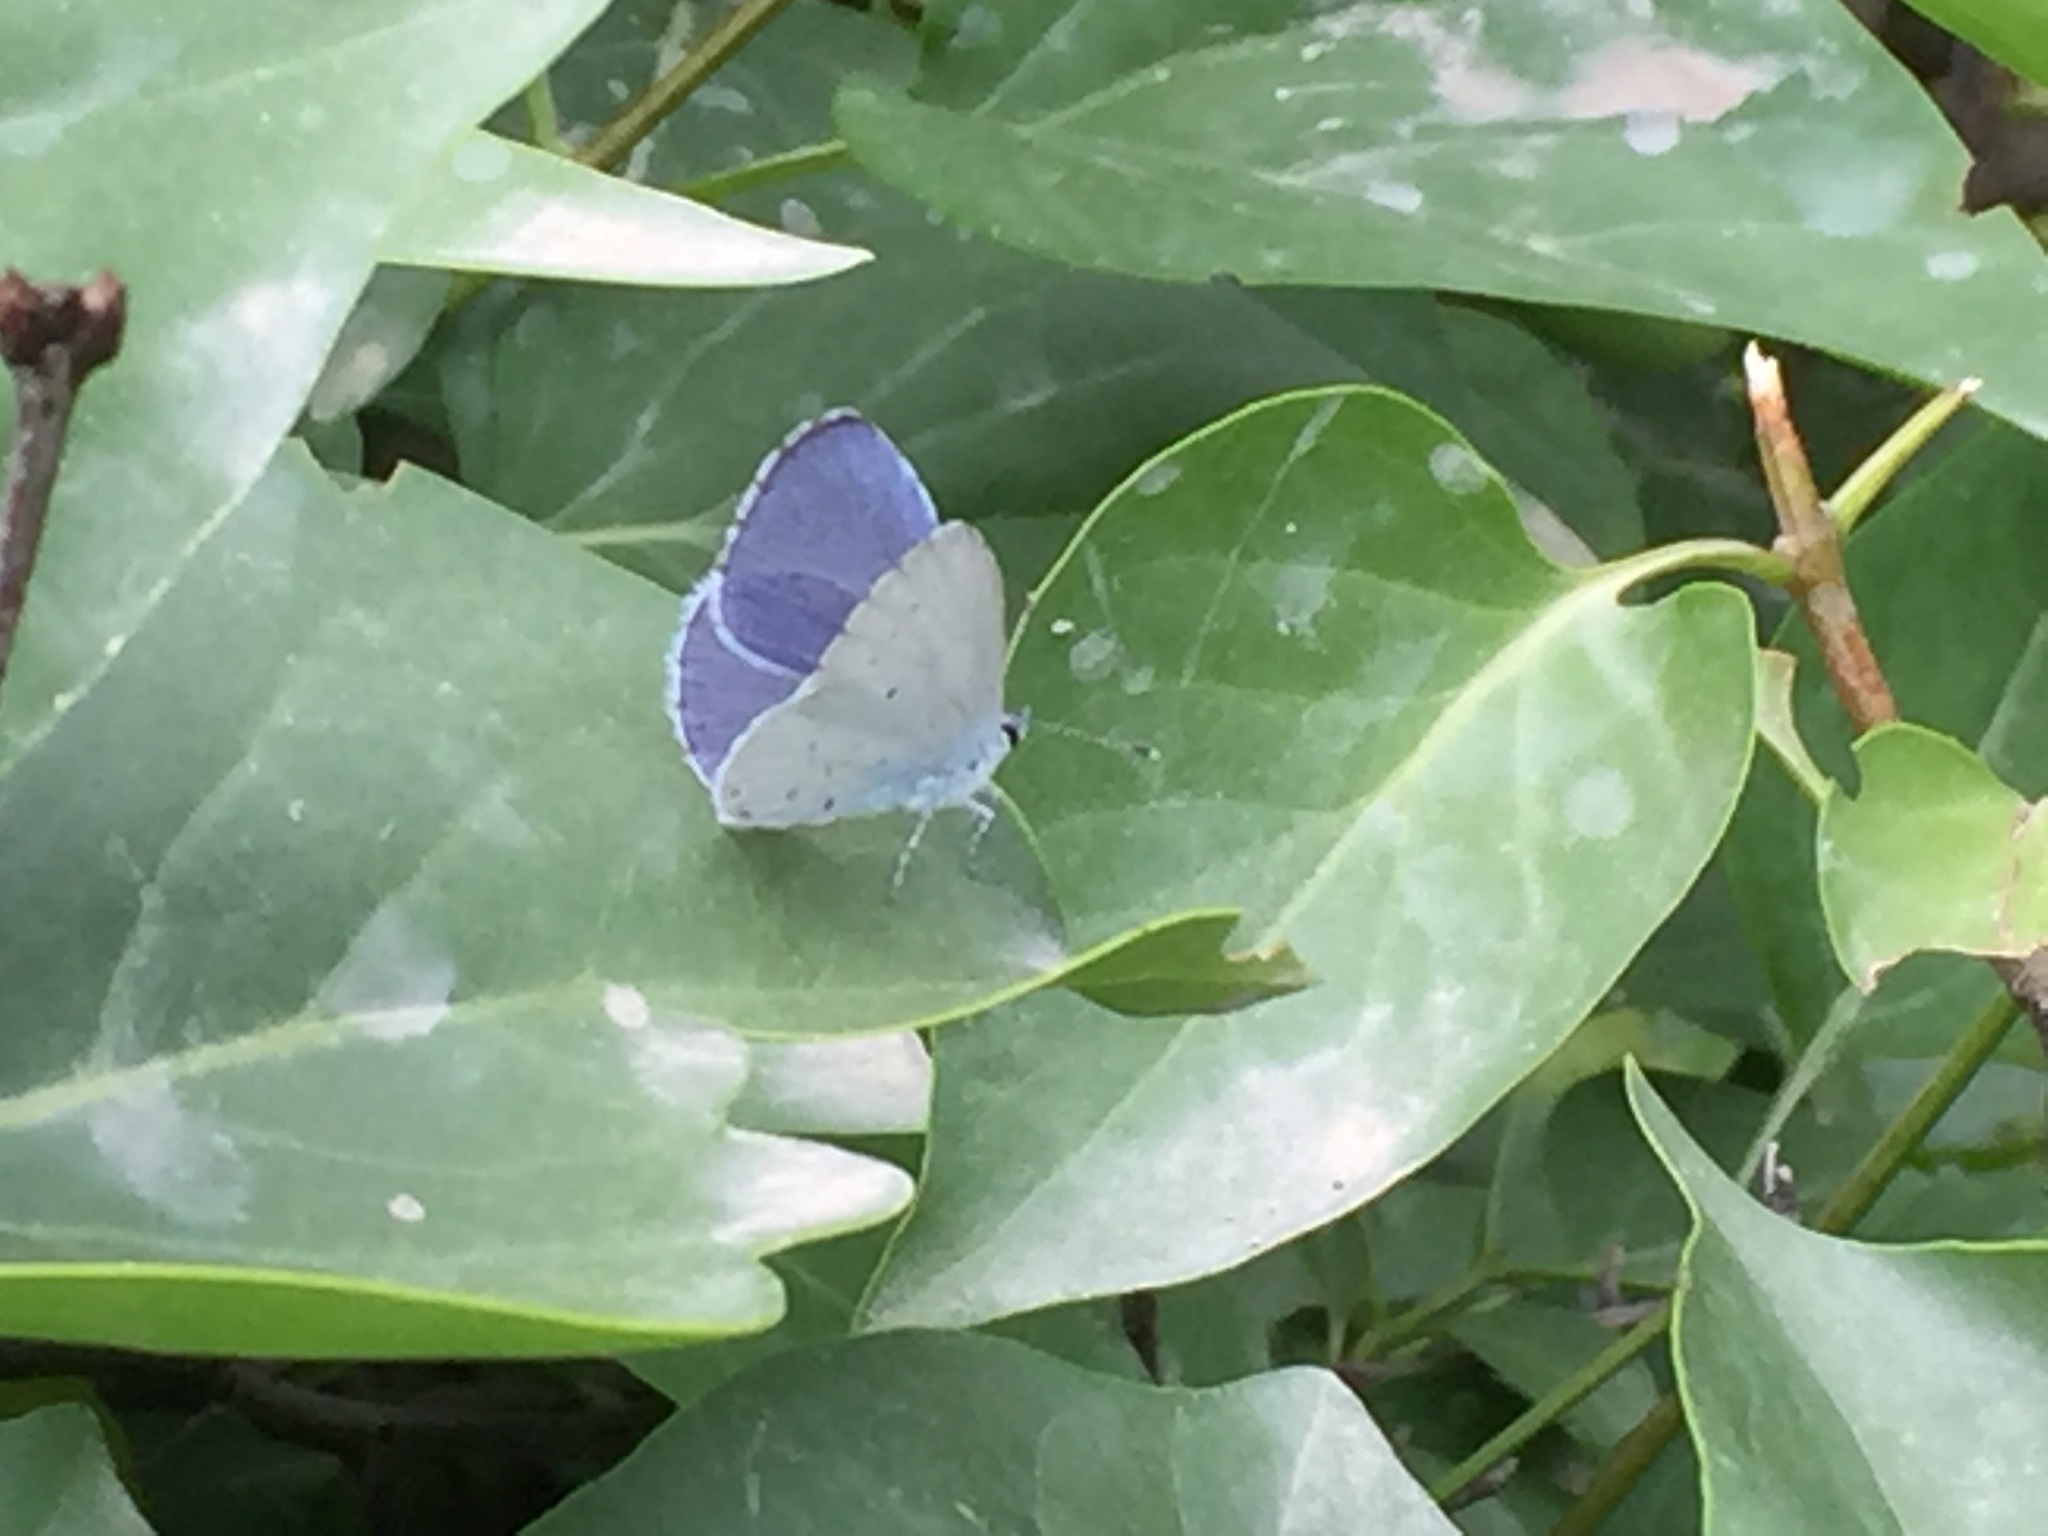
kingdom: Animalia
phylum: Arthropoda
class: Insecta
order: Lepidoptera
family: Lycaenidae
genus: Celastrina
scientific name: Celastrina argiolus
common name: Holly blue
